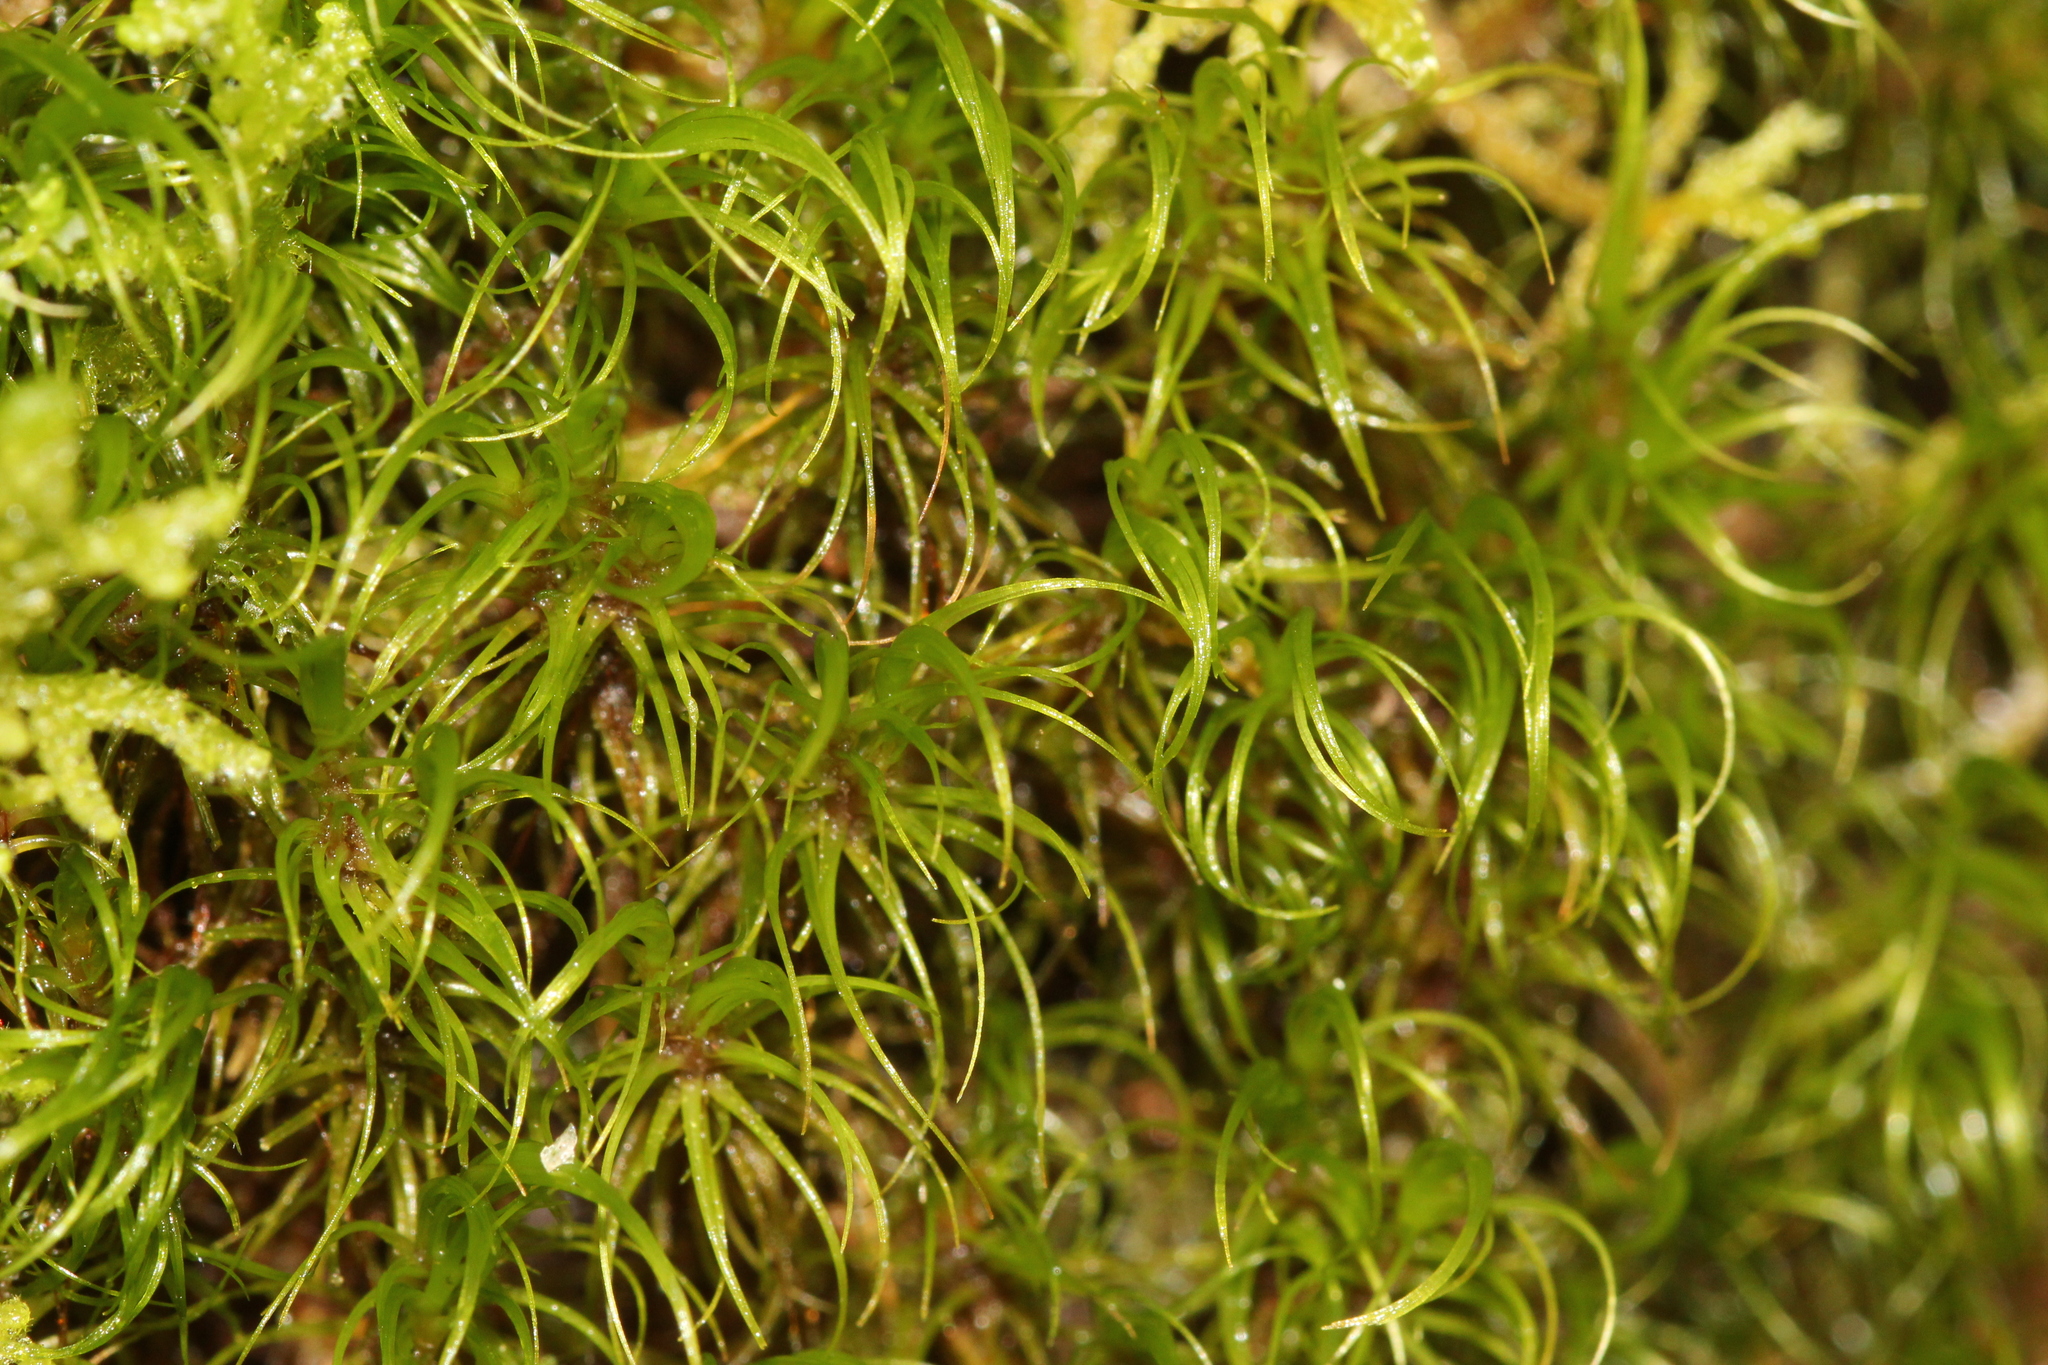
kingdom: Plantae
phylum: Bryophyta
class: Bryopsida
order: Dicranales
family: Dicranaceae
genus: Paraleucobryum
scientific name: Paraleucobryum longifolium
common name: Long-leaved fork moss
